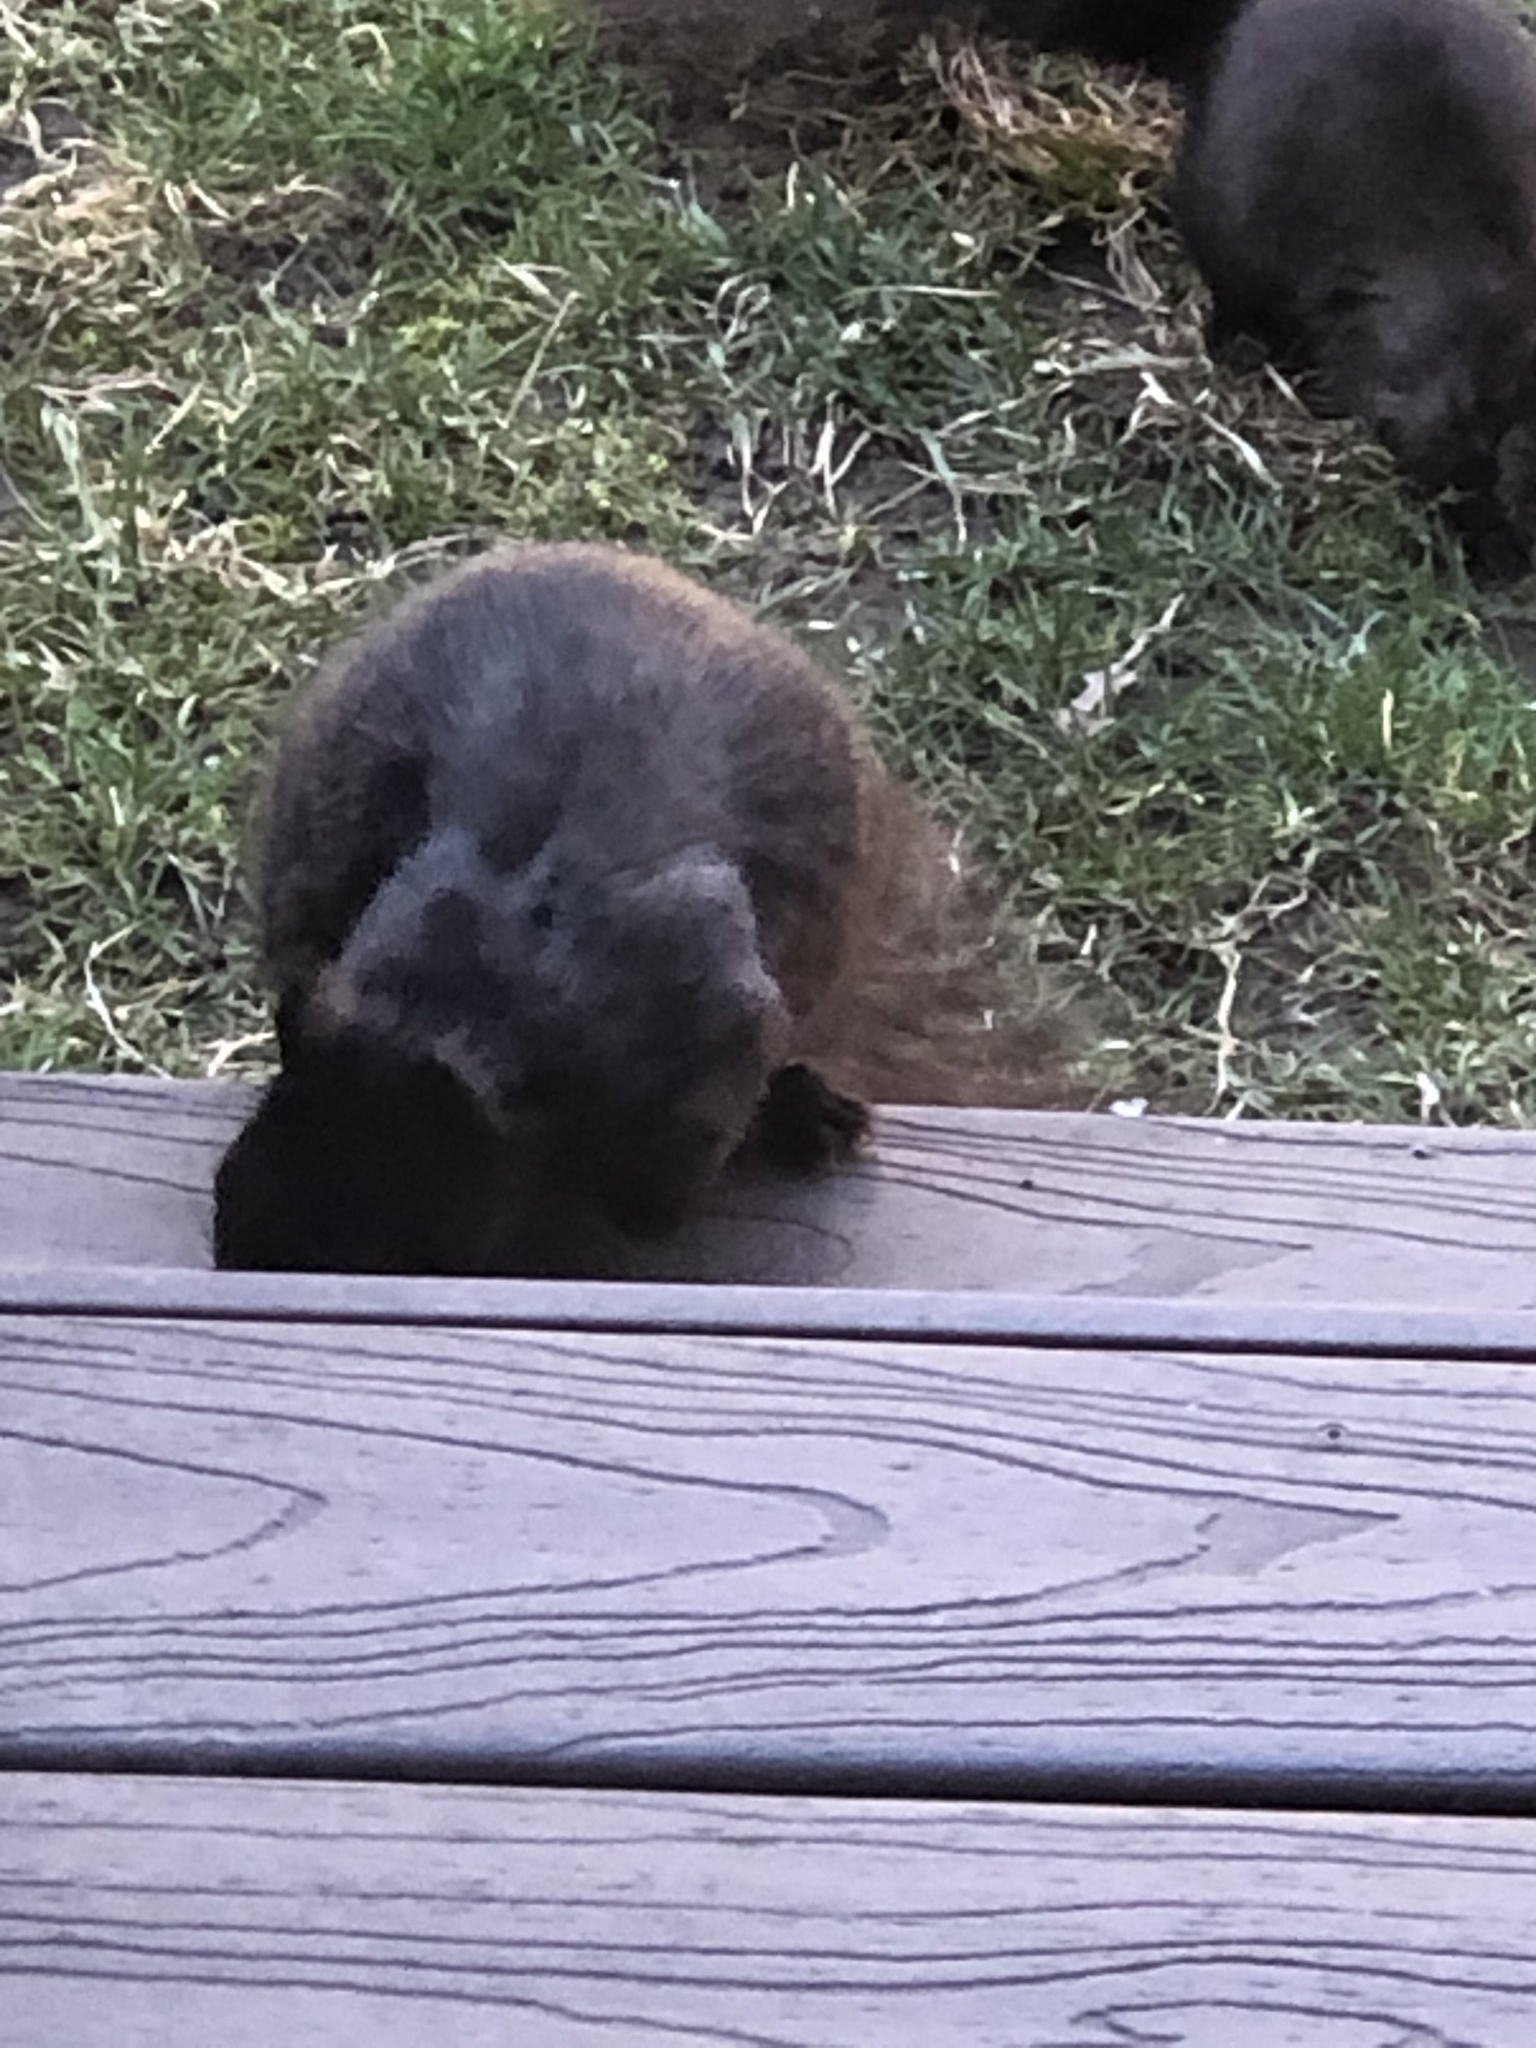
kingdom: Animalia
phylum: Chordata
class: Mammalia
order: Rodentia
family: Sciuridae
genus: Sciurus
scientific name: Sciurus carolinensis
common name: Eastern gray squirrel
